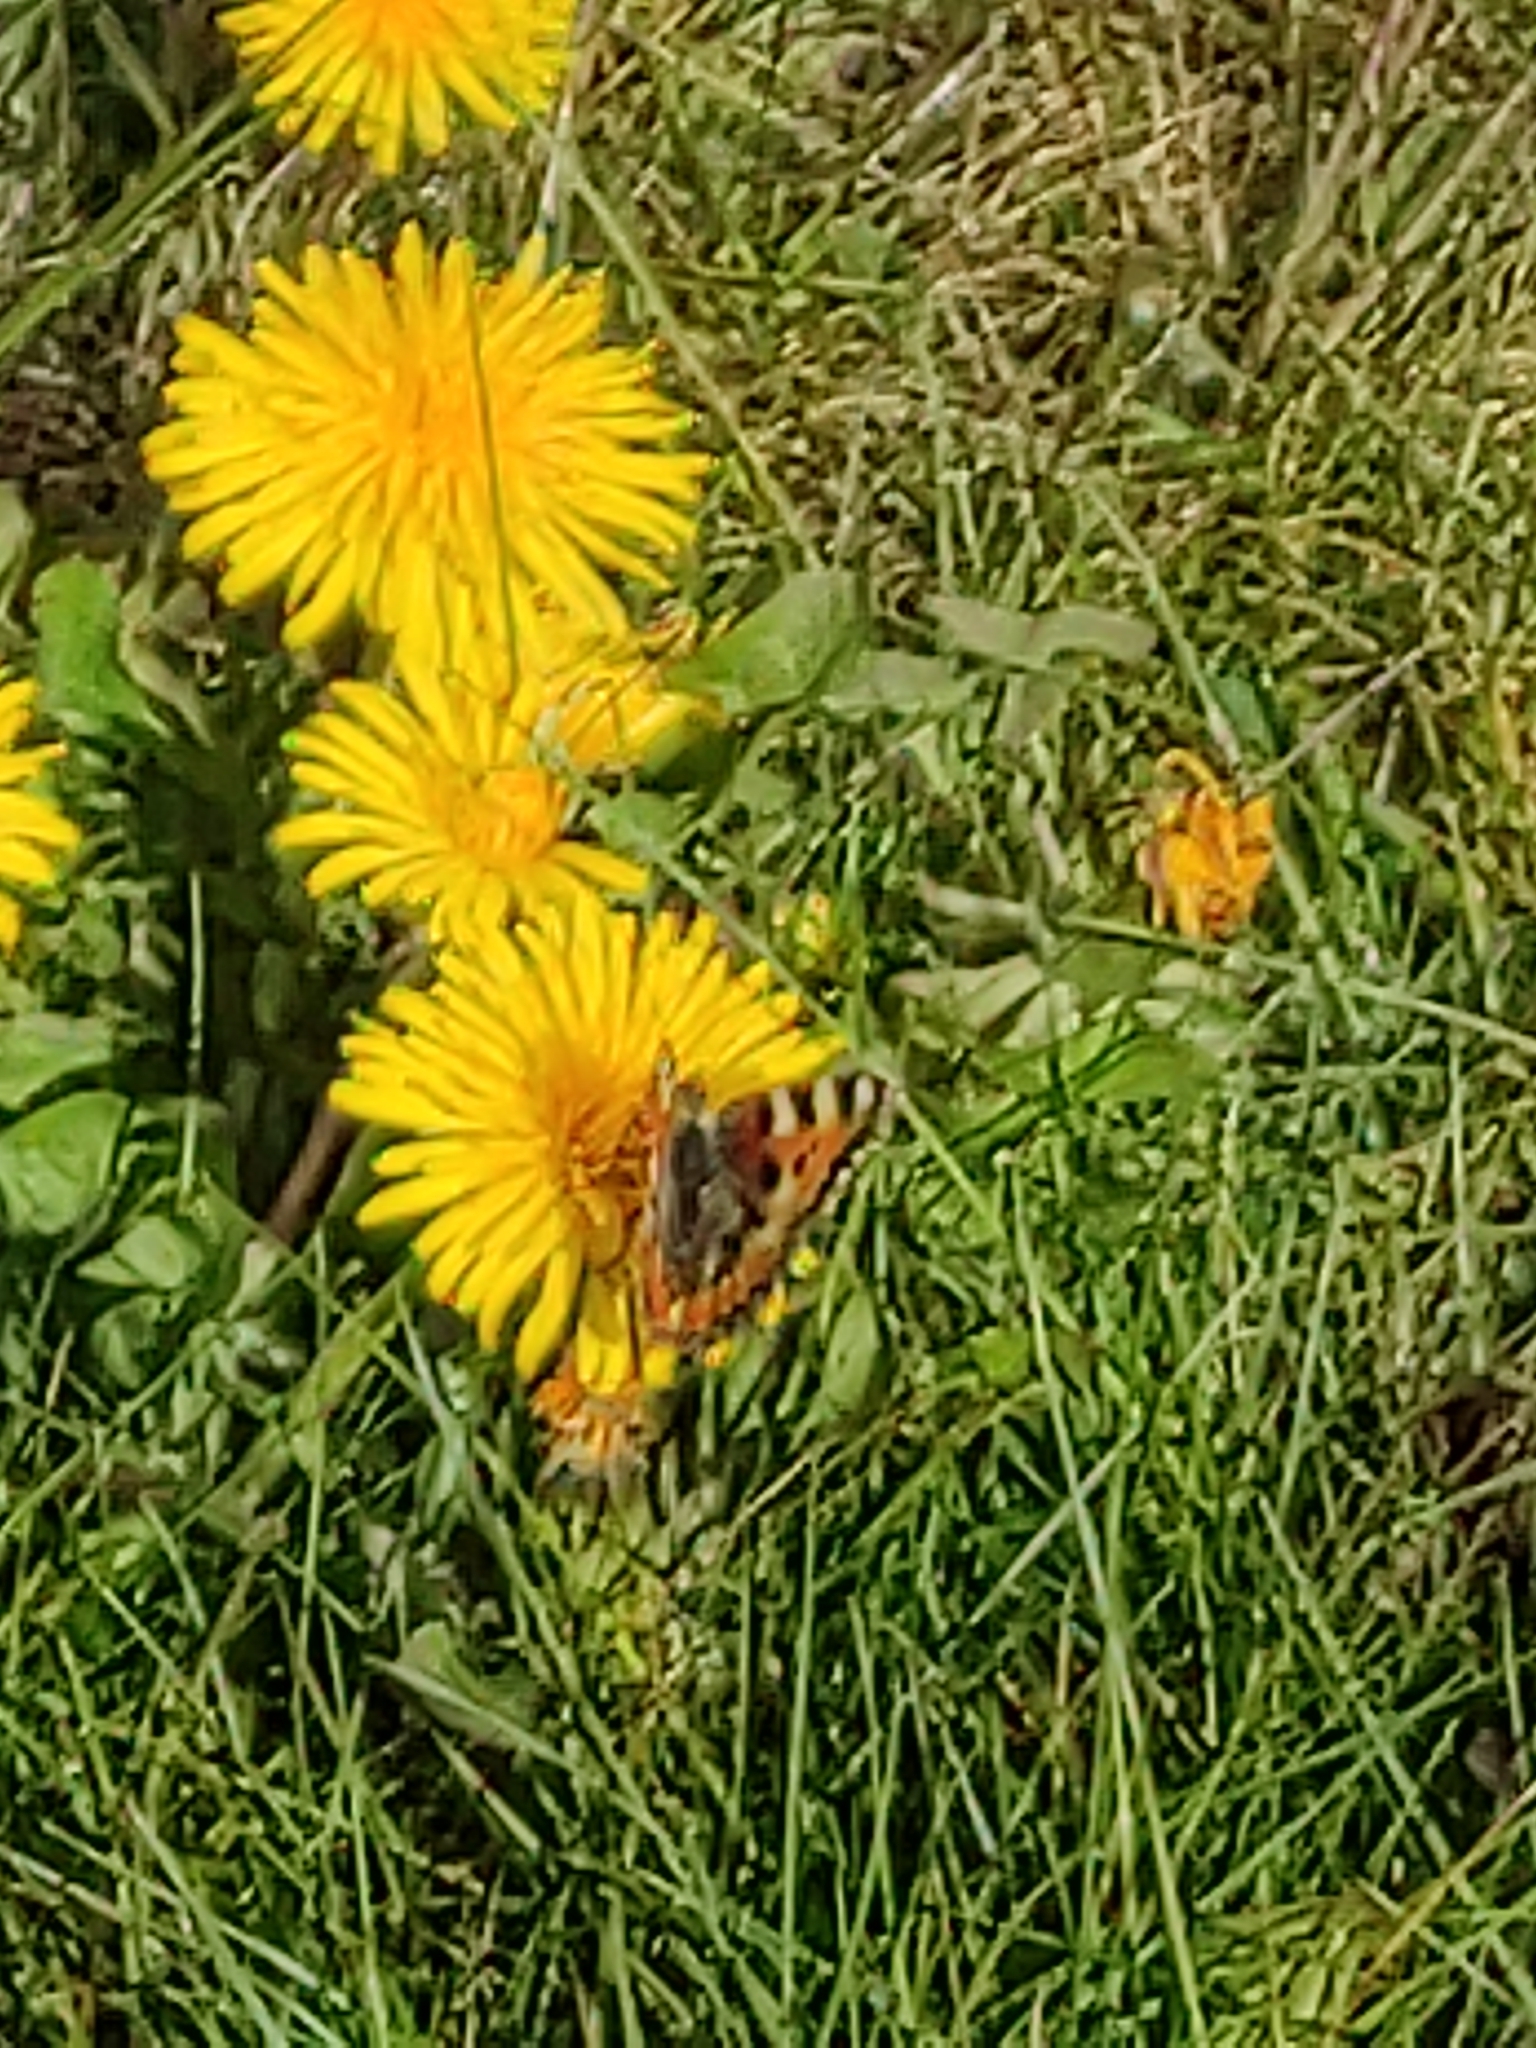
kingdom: Animalia
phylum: Arthropoda
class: Insecta
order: Lepidoptera
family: Nymphalidae
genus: Aglais
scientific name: Aglais urticae
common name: Small tortoiseshell
